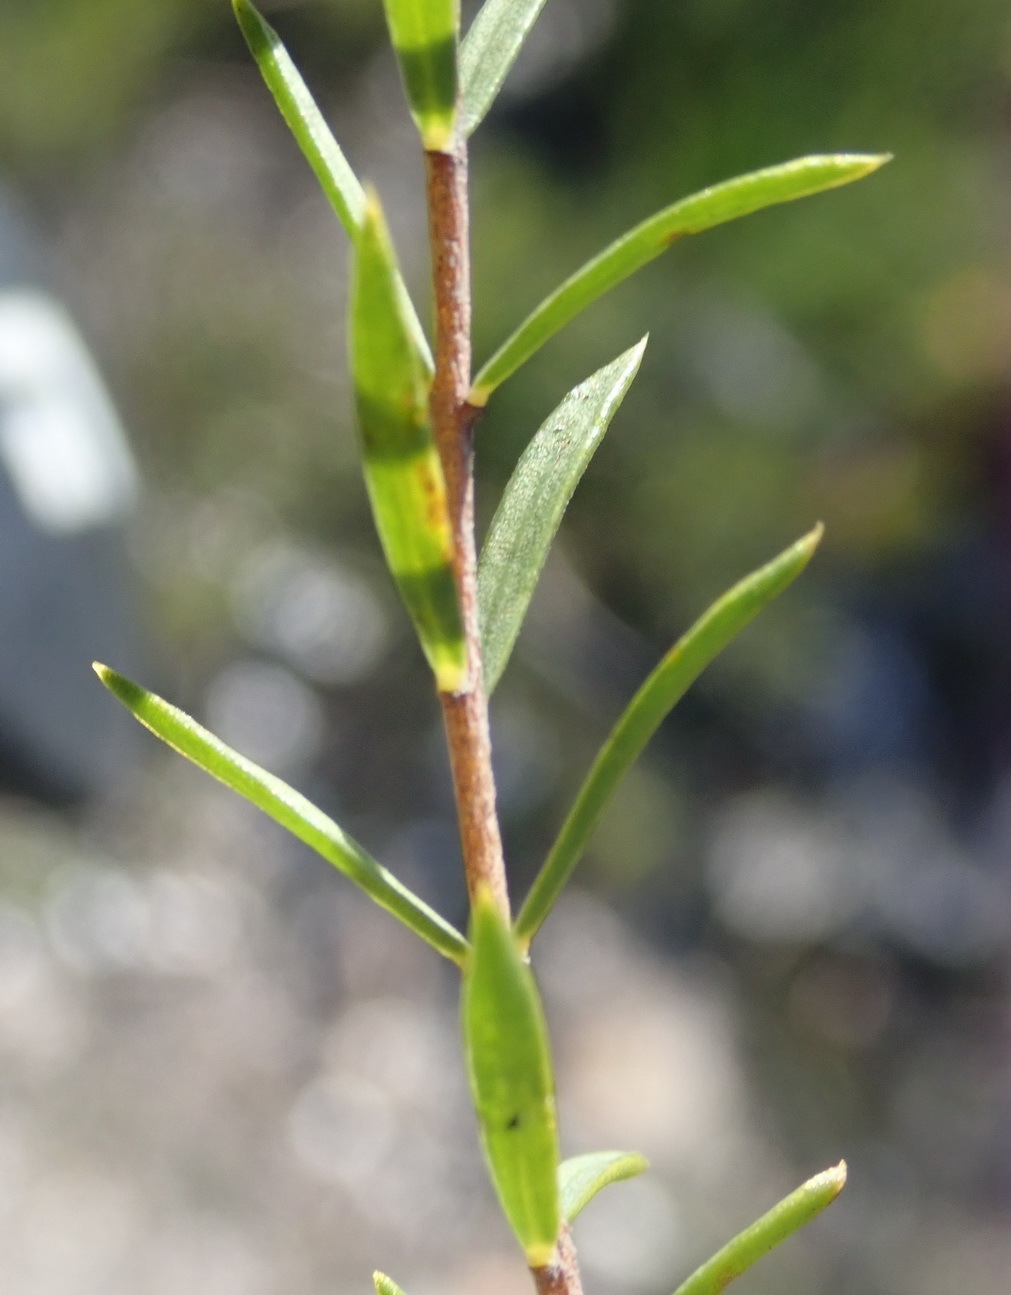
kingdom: Plantae
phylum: Tracheophyta
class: Magnoliopsida
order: Malvales
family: Thymelaeaceae
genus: Lachnaea
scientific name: Lachnaea diosmoides
